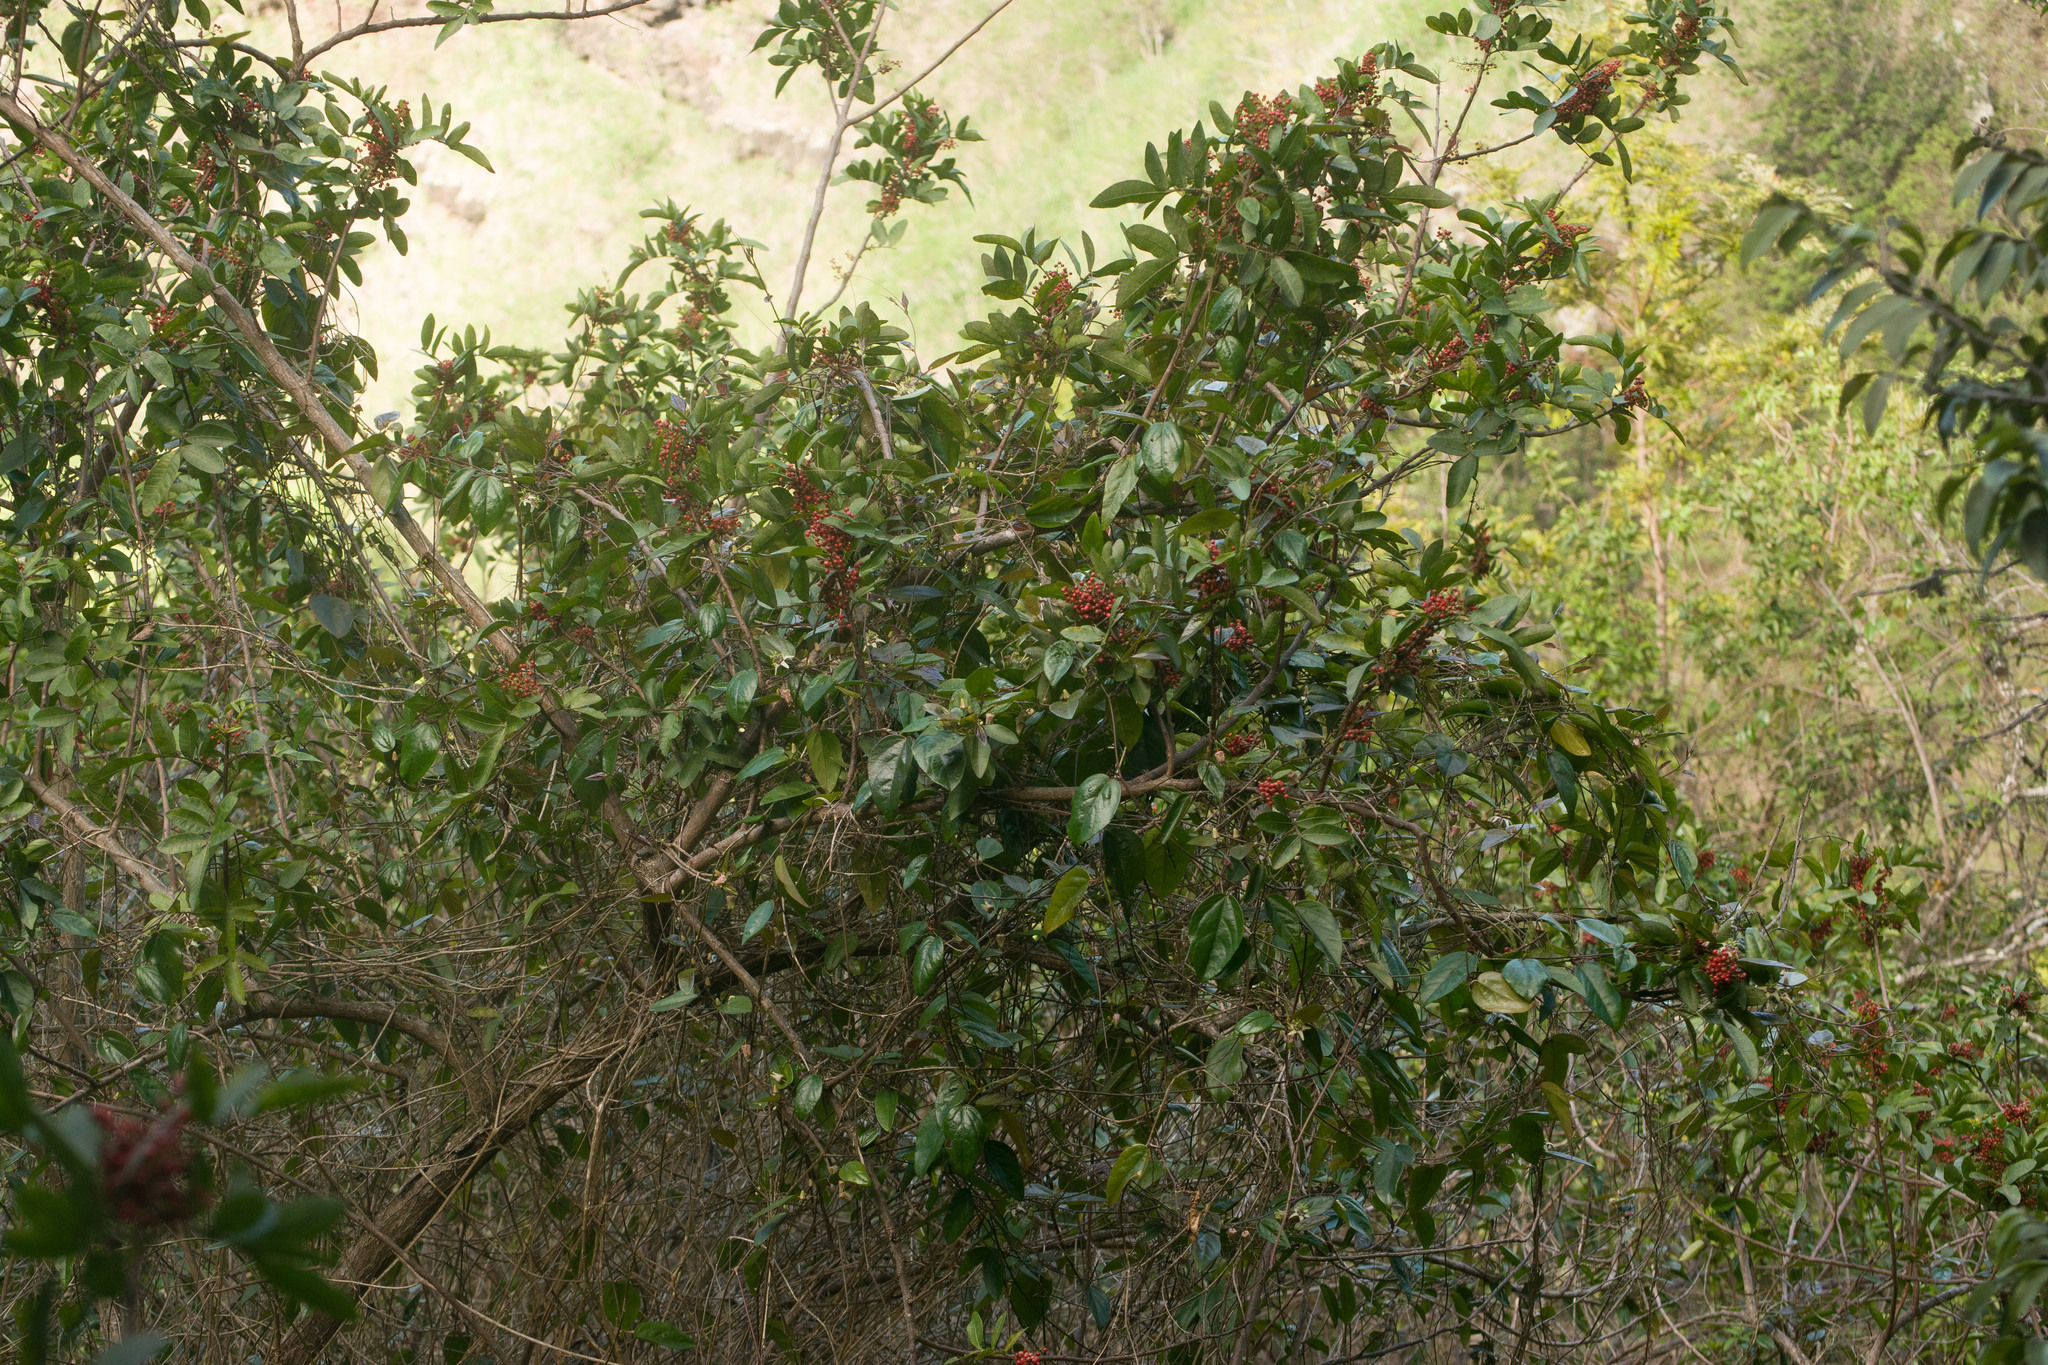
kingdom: Plantae
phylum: Tracheophyta
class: Magnoliopsida
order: Sapindales
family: Anacardiaceae
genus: Schinus
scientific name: Schinus terebinthifolia
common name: Brazilian peppertree
